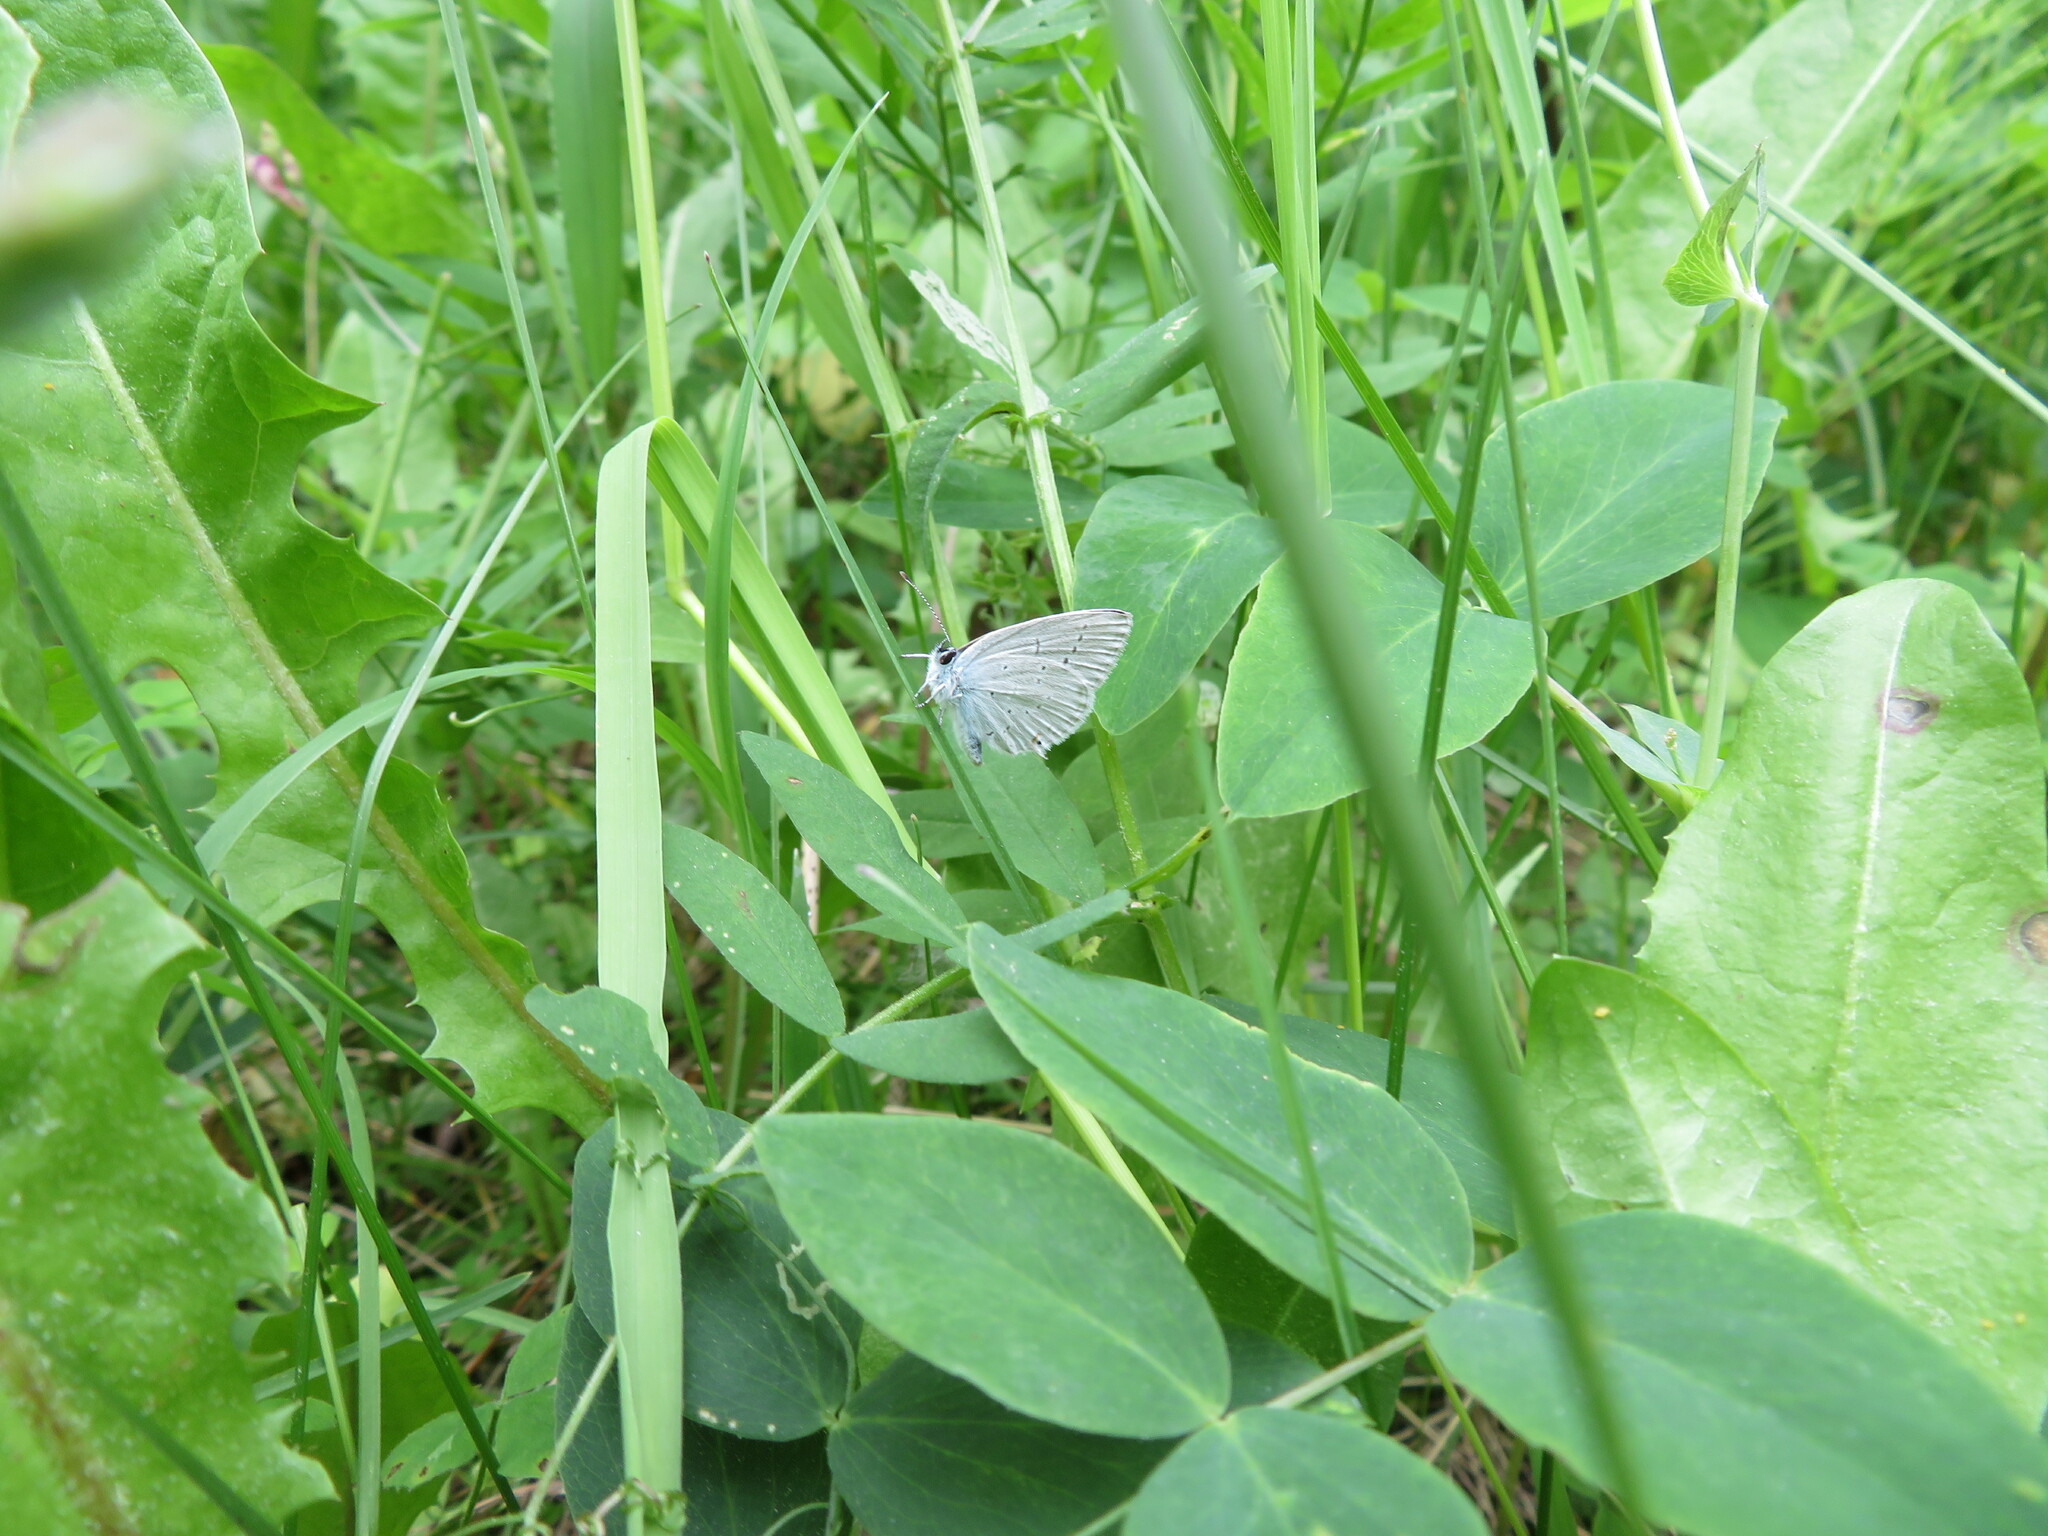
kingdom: Animalia
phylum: Arthropoda
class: Insecta
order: Lepidoptera
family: Lycaenidae
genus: Elkalyce
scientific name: Elkalyce amyntula
